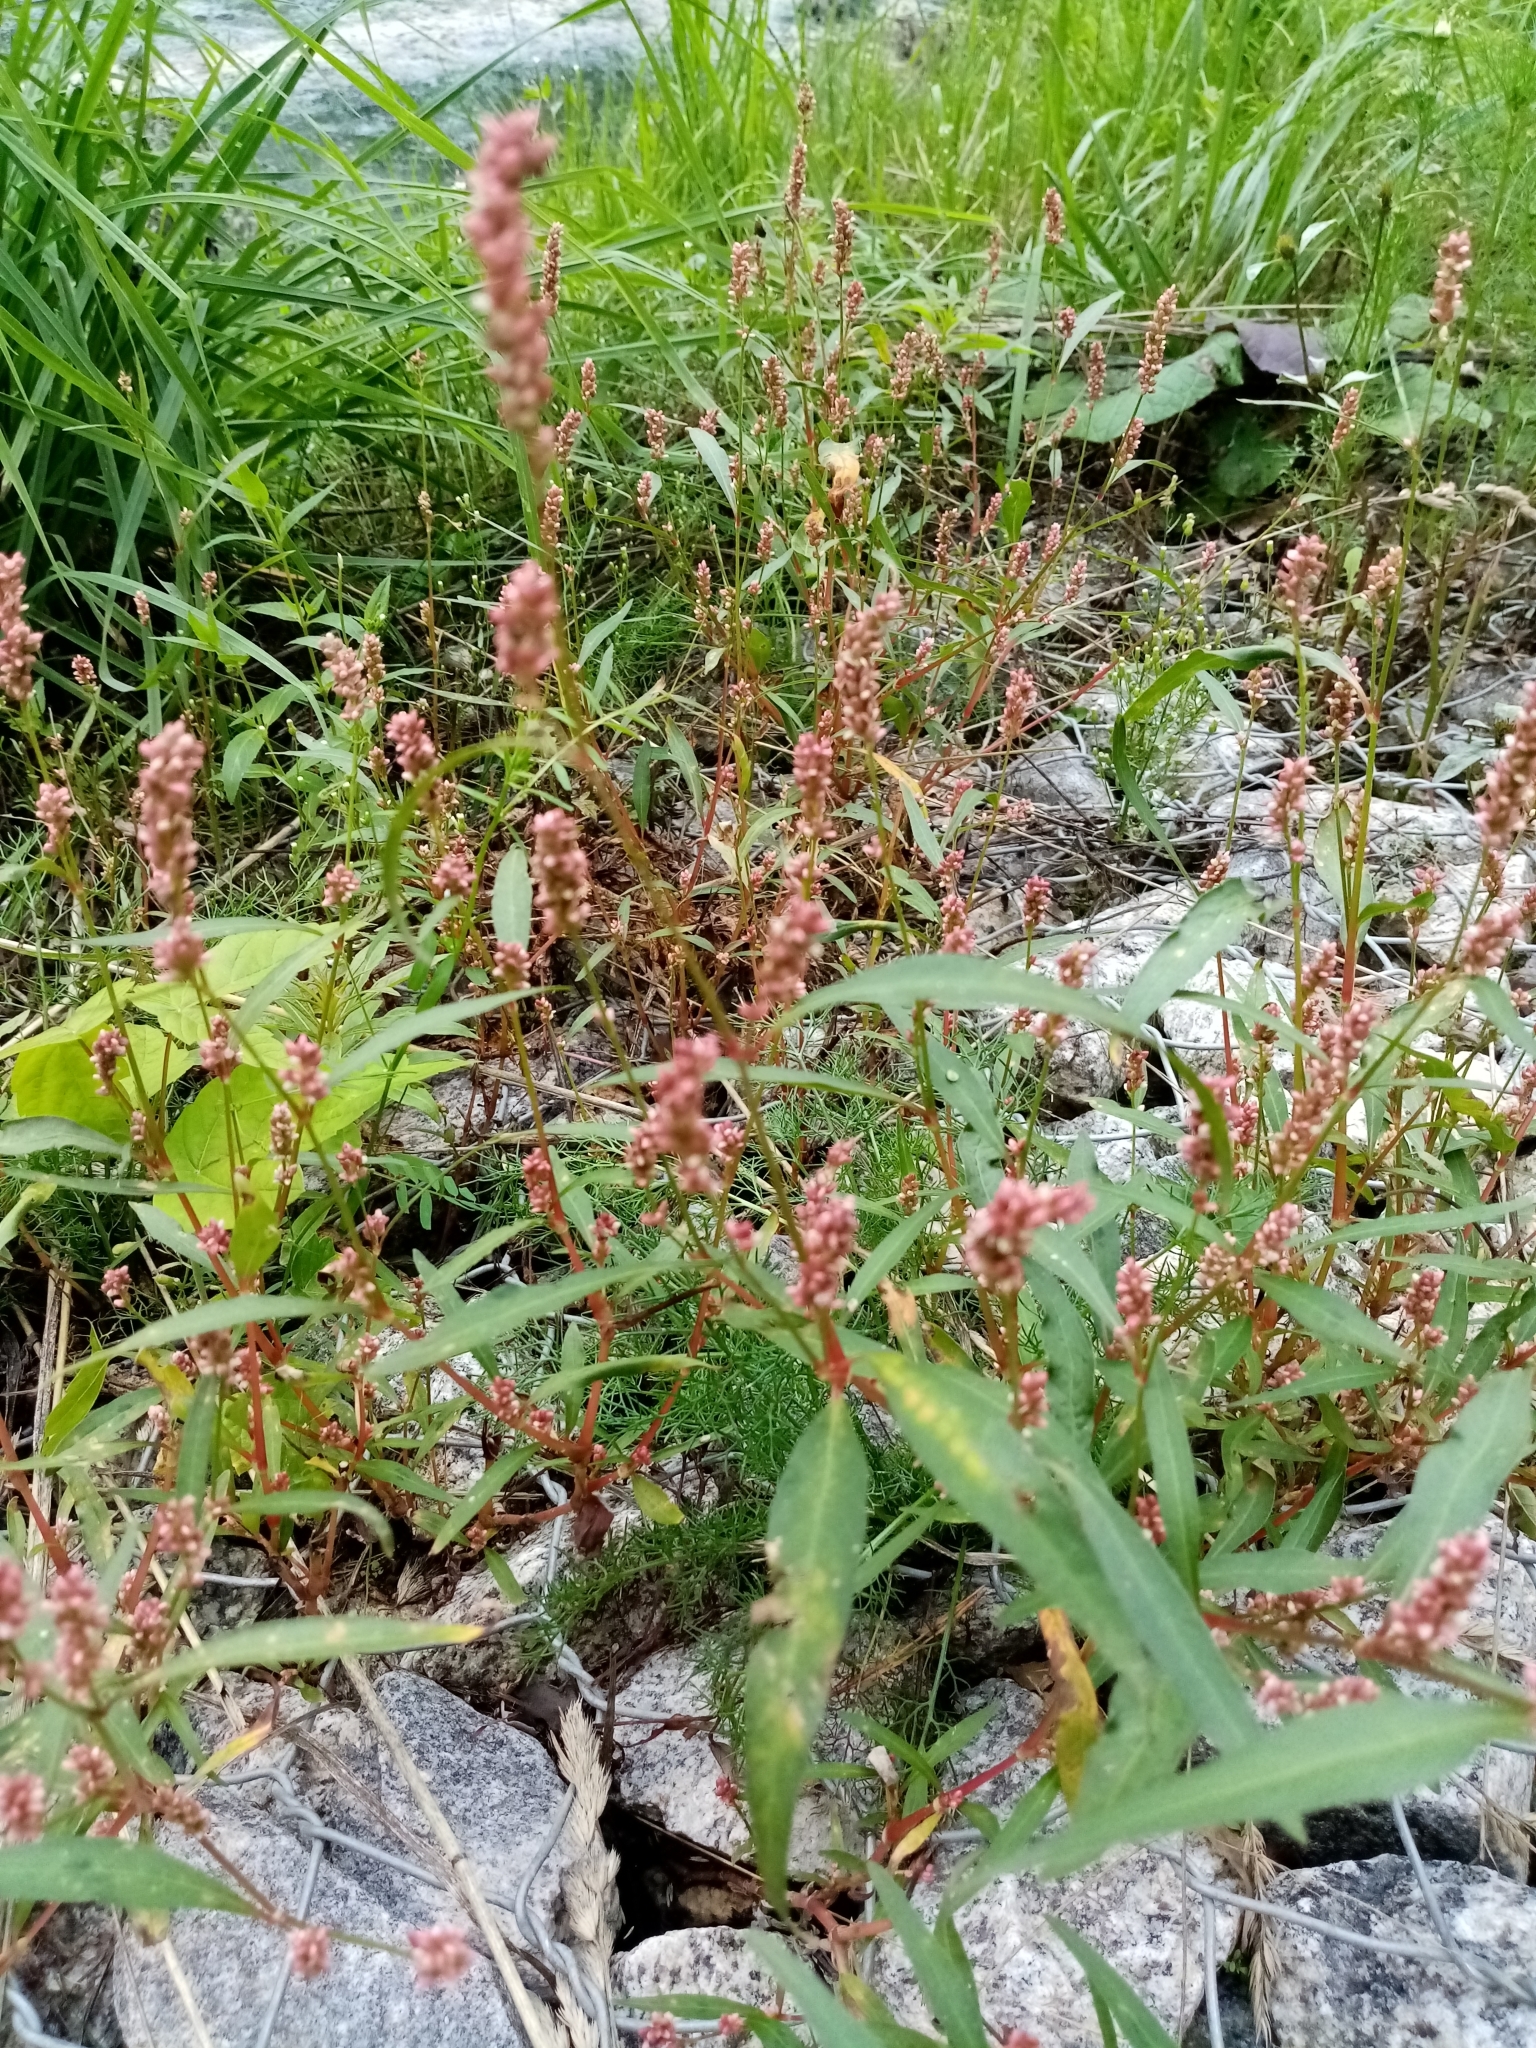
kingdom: Plantae
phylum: Tracheophyta
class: Magnoliopsida
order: Caryophyllales
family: Polygonaceae
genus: Persicaria
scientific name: Persicaria maculosa
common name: Redshank
